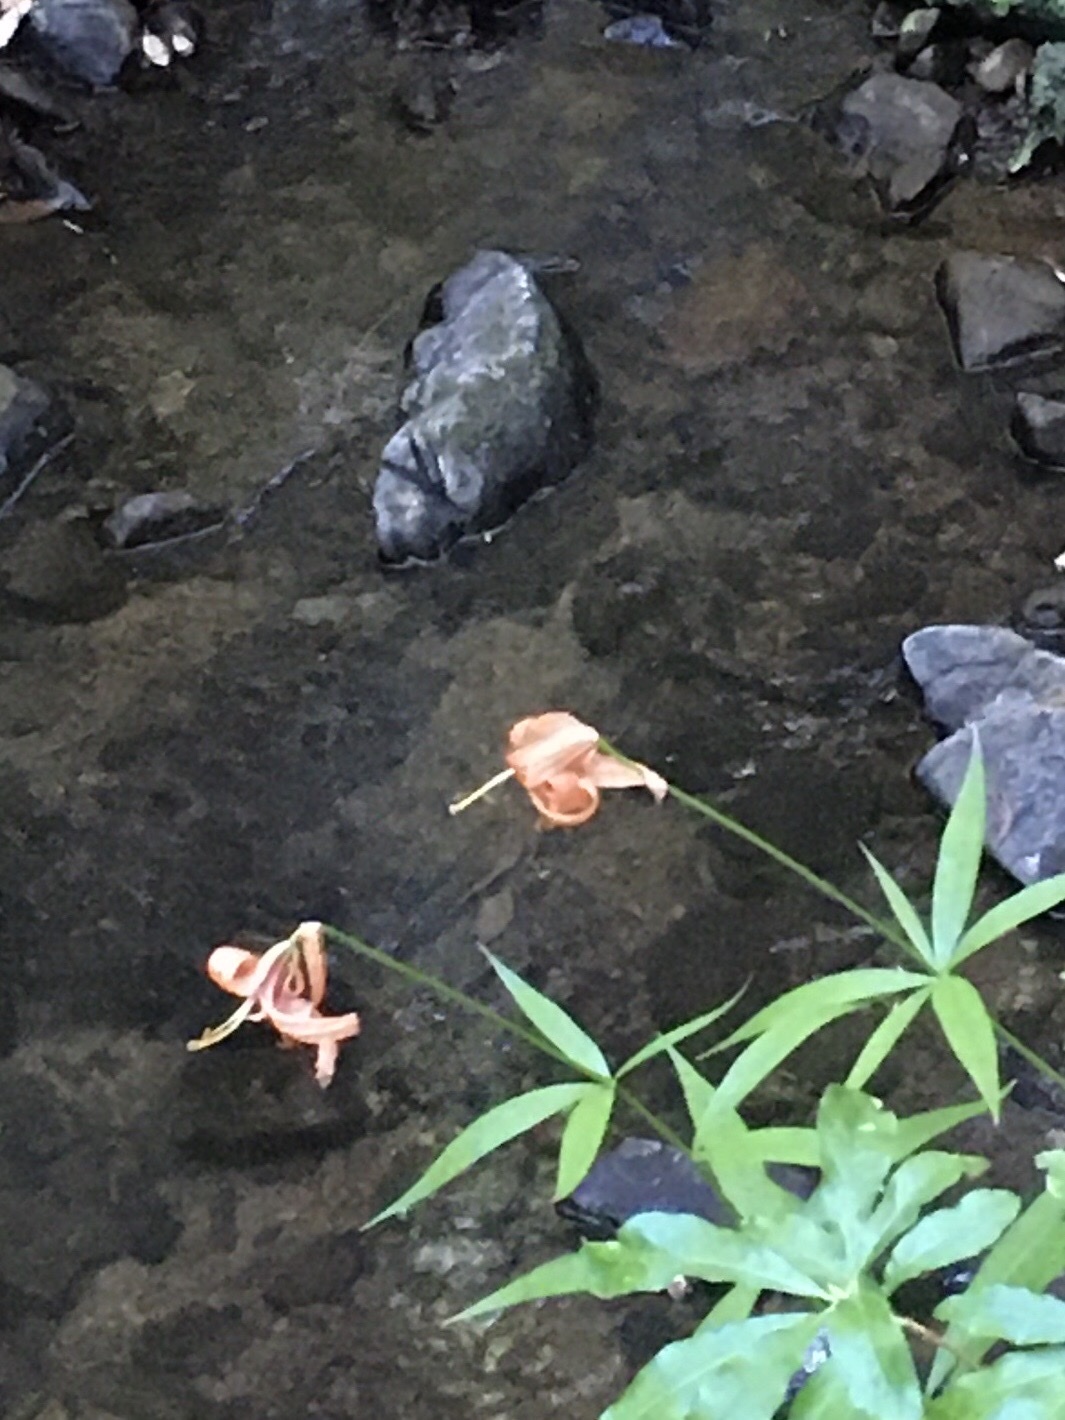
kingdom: Plantae
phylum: Tracheophyta
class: Liliopsida
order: Liliales
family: Liliaceae
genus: Lilium
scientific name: Lilium pardalinum
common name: Panther lily
